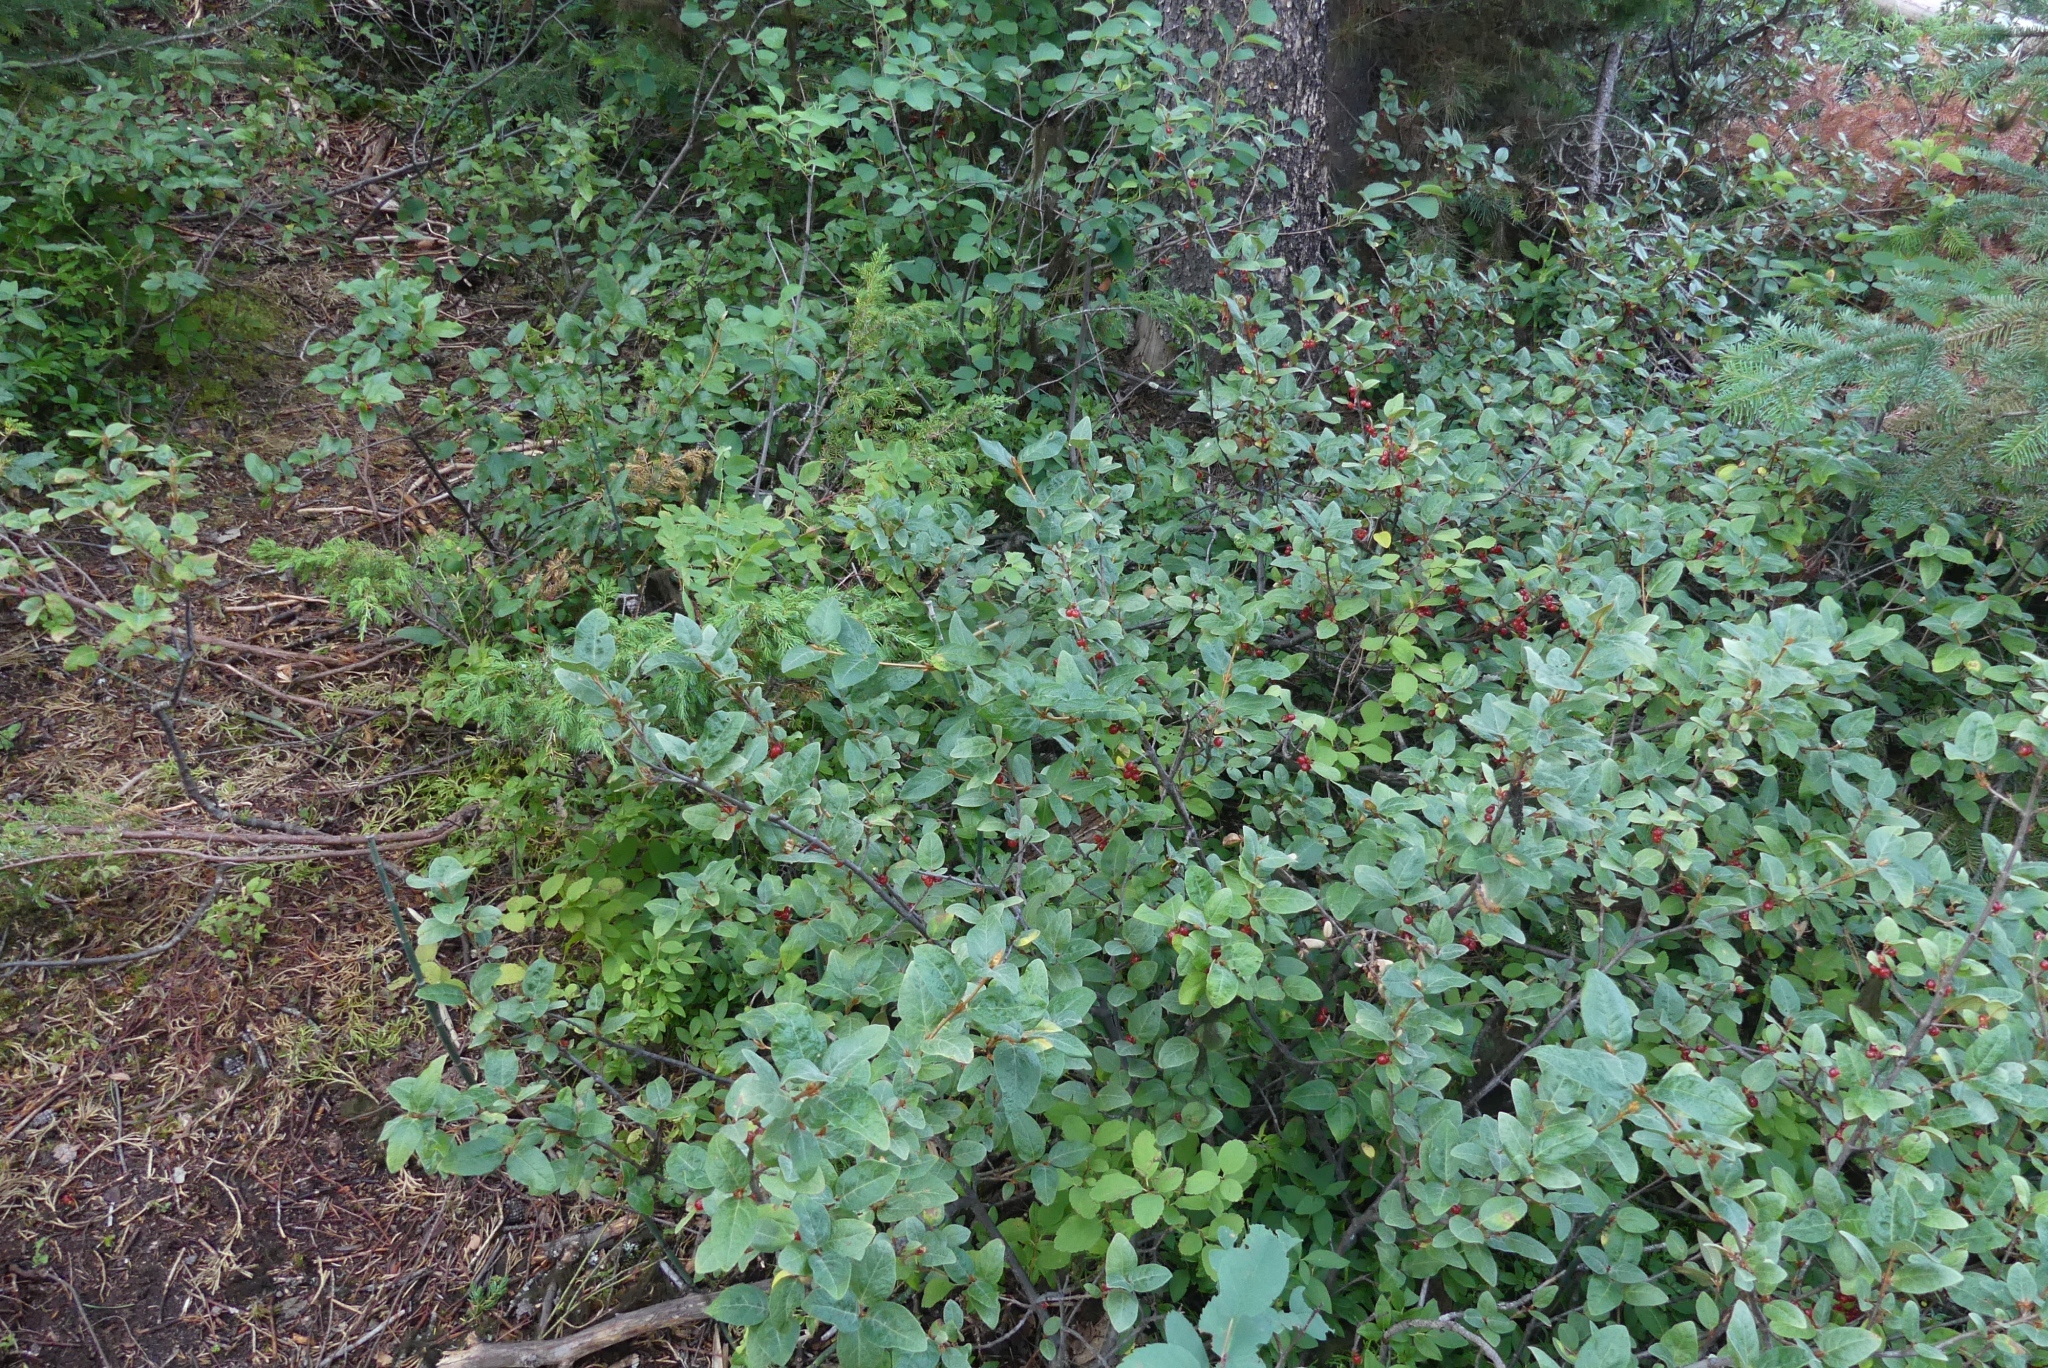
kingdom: Plantae
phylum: Tracheophyta
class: Magnoliopsida
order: Rosales
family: Elaeagnaceae
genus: Shepherdia
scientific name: Shepherdia canadensis
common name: Soapberry
